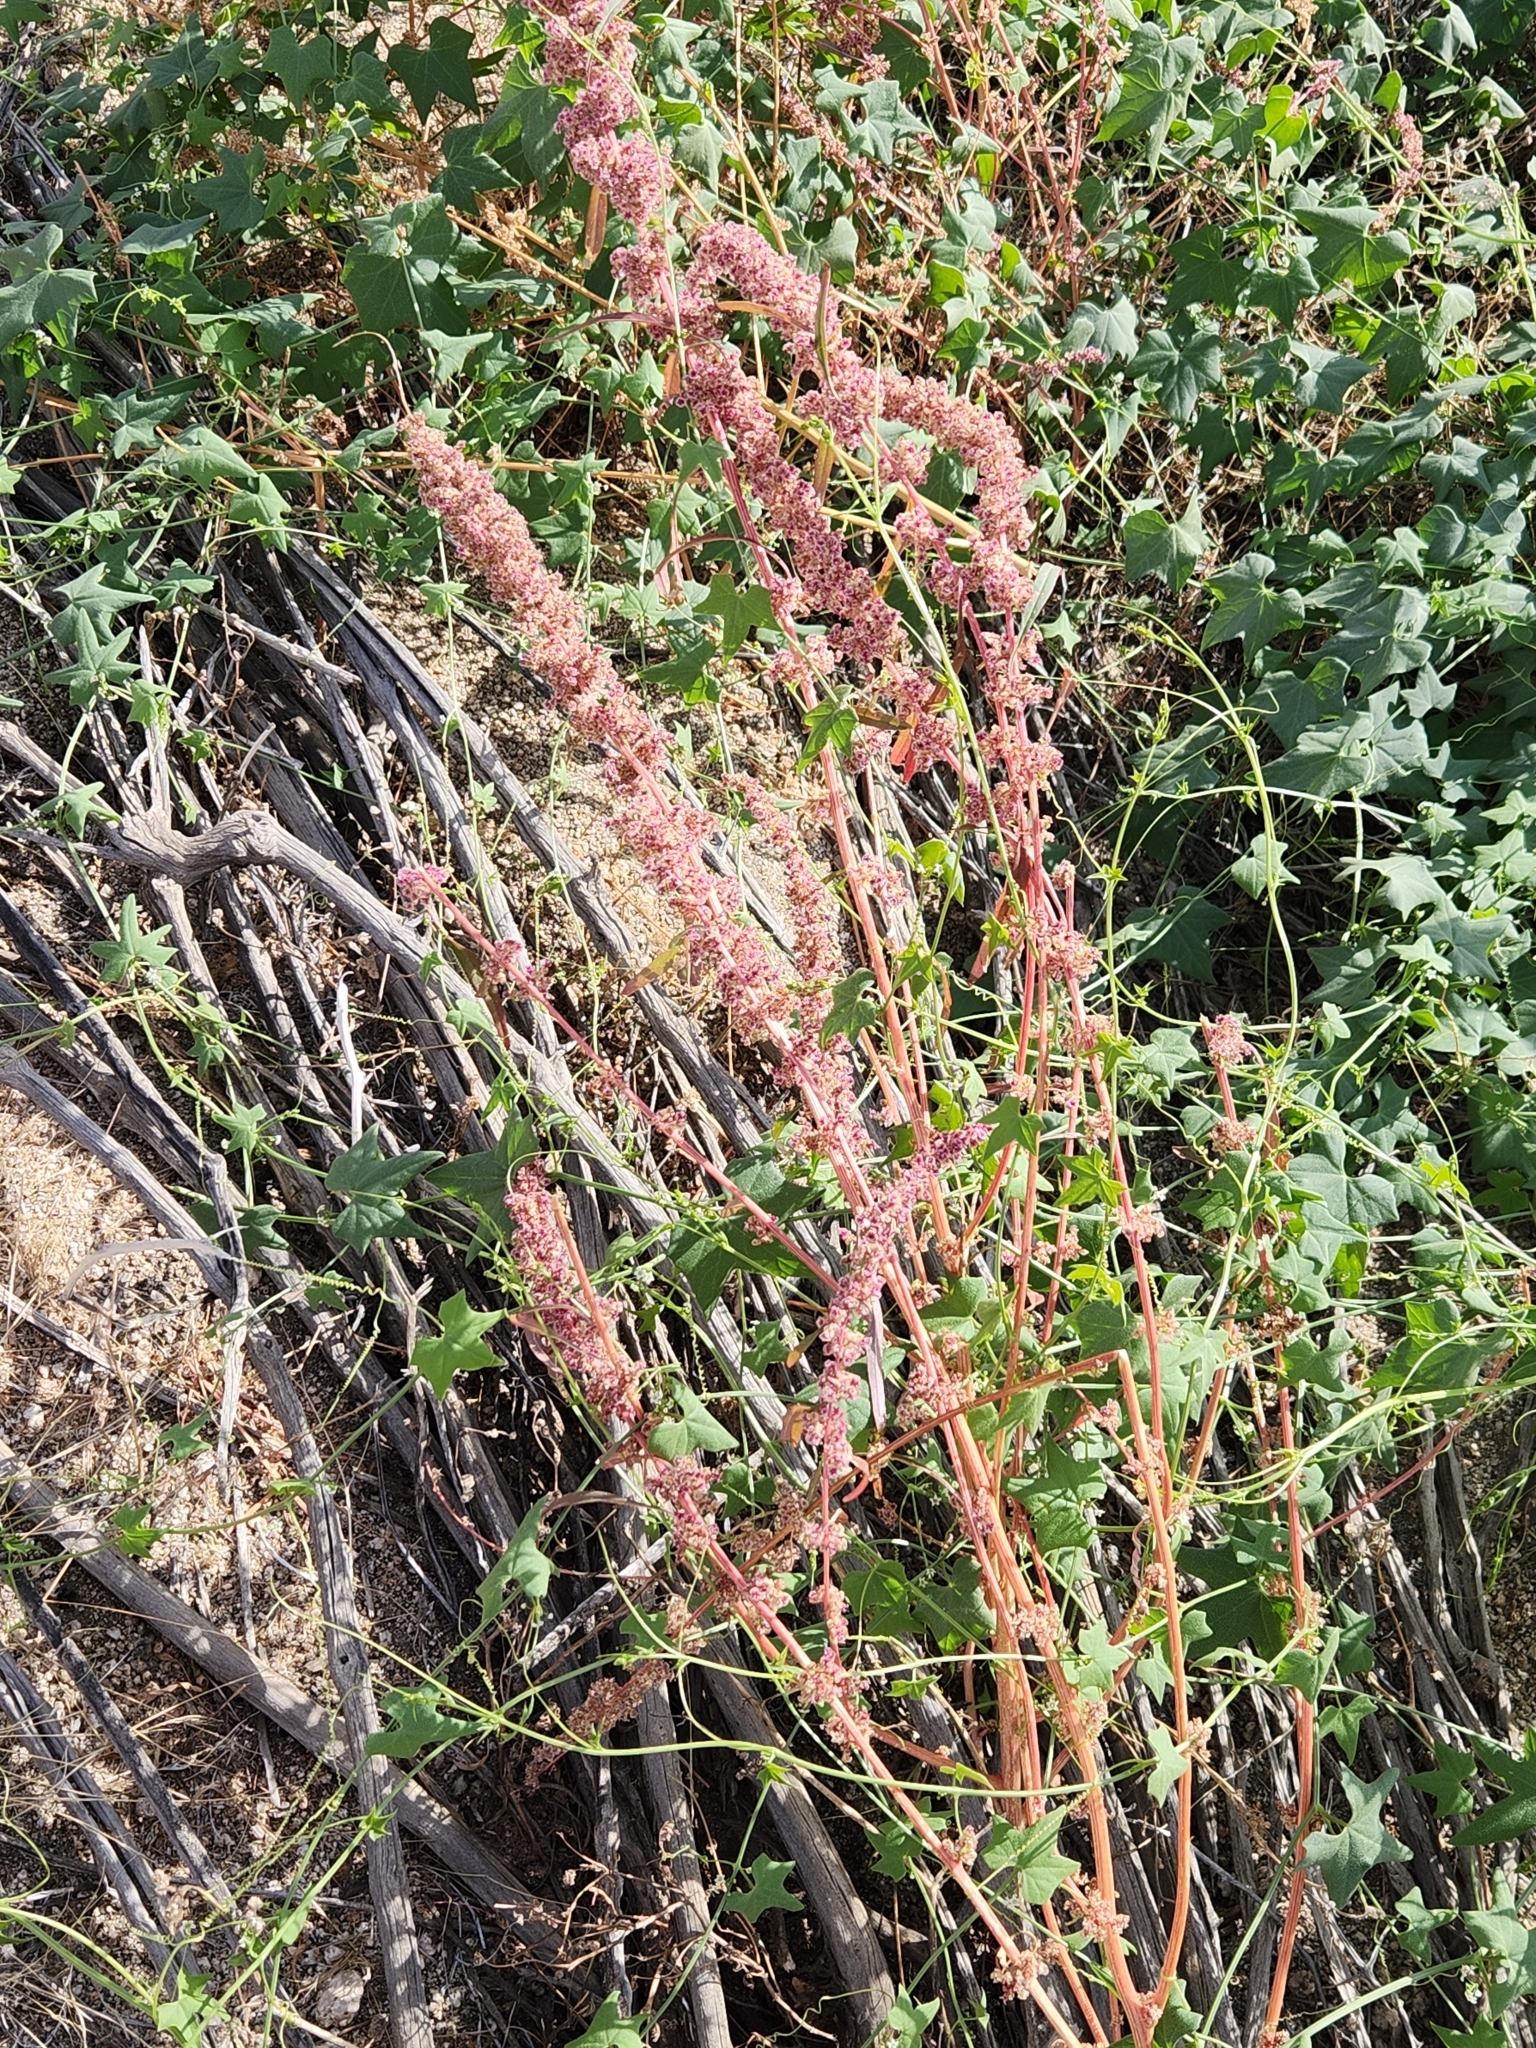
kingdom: Plantae
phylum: Tracheophyta
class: Magnoliopsida
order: Caryophyllales
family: Amaranthaceae
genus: Amaranthus
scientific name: Amaranthus fimbriatus
